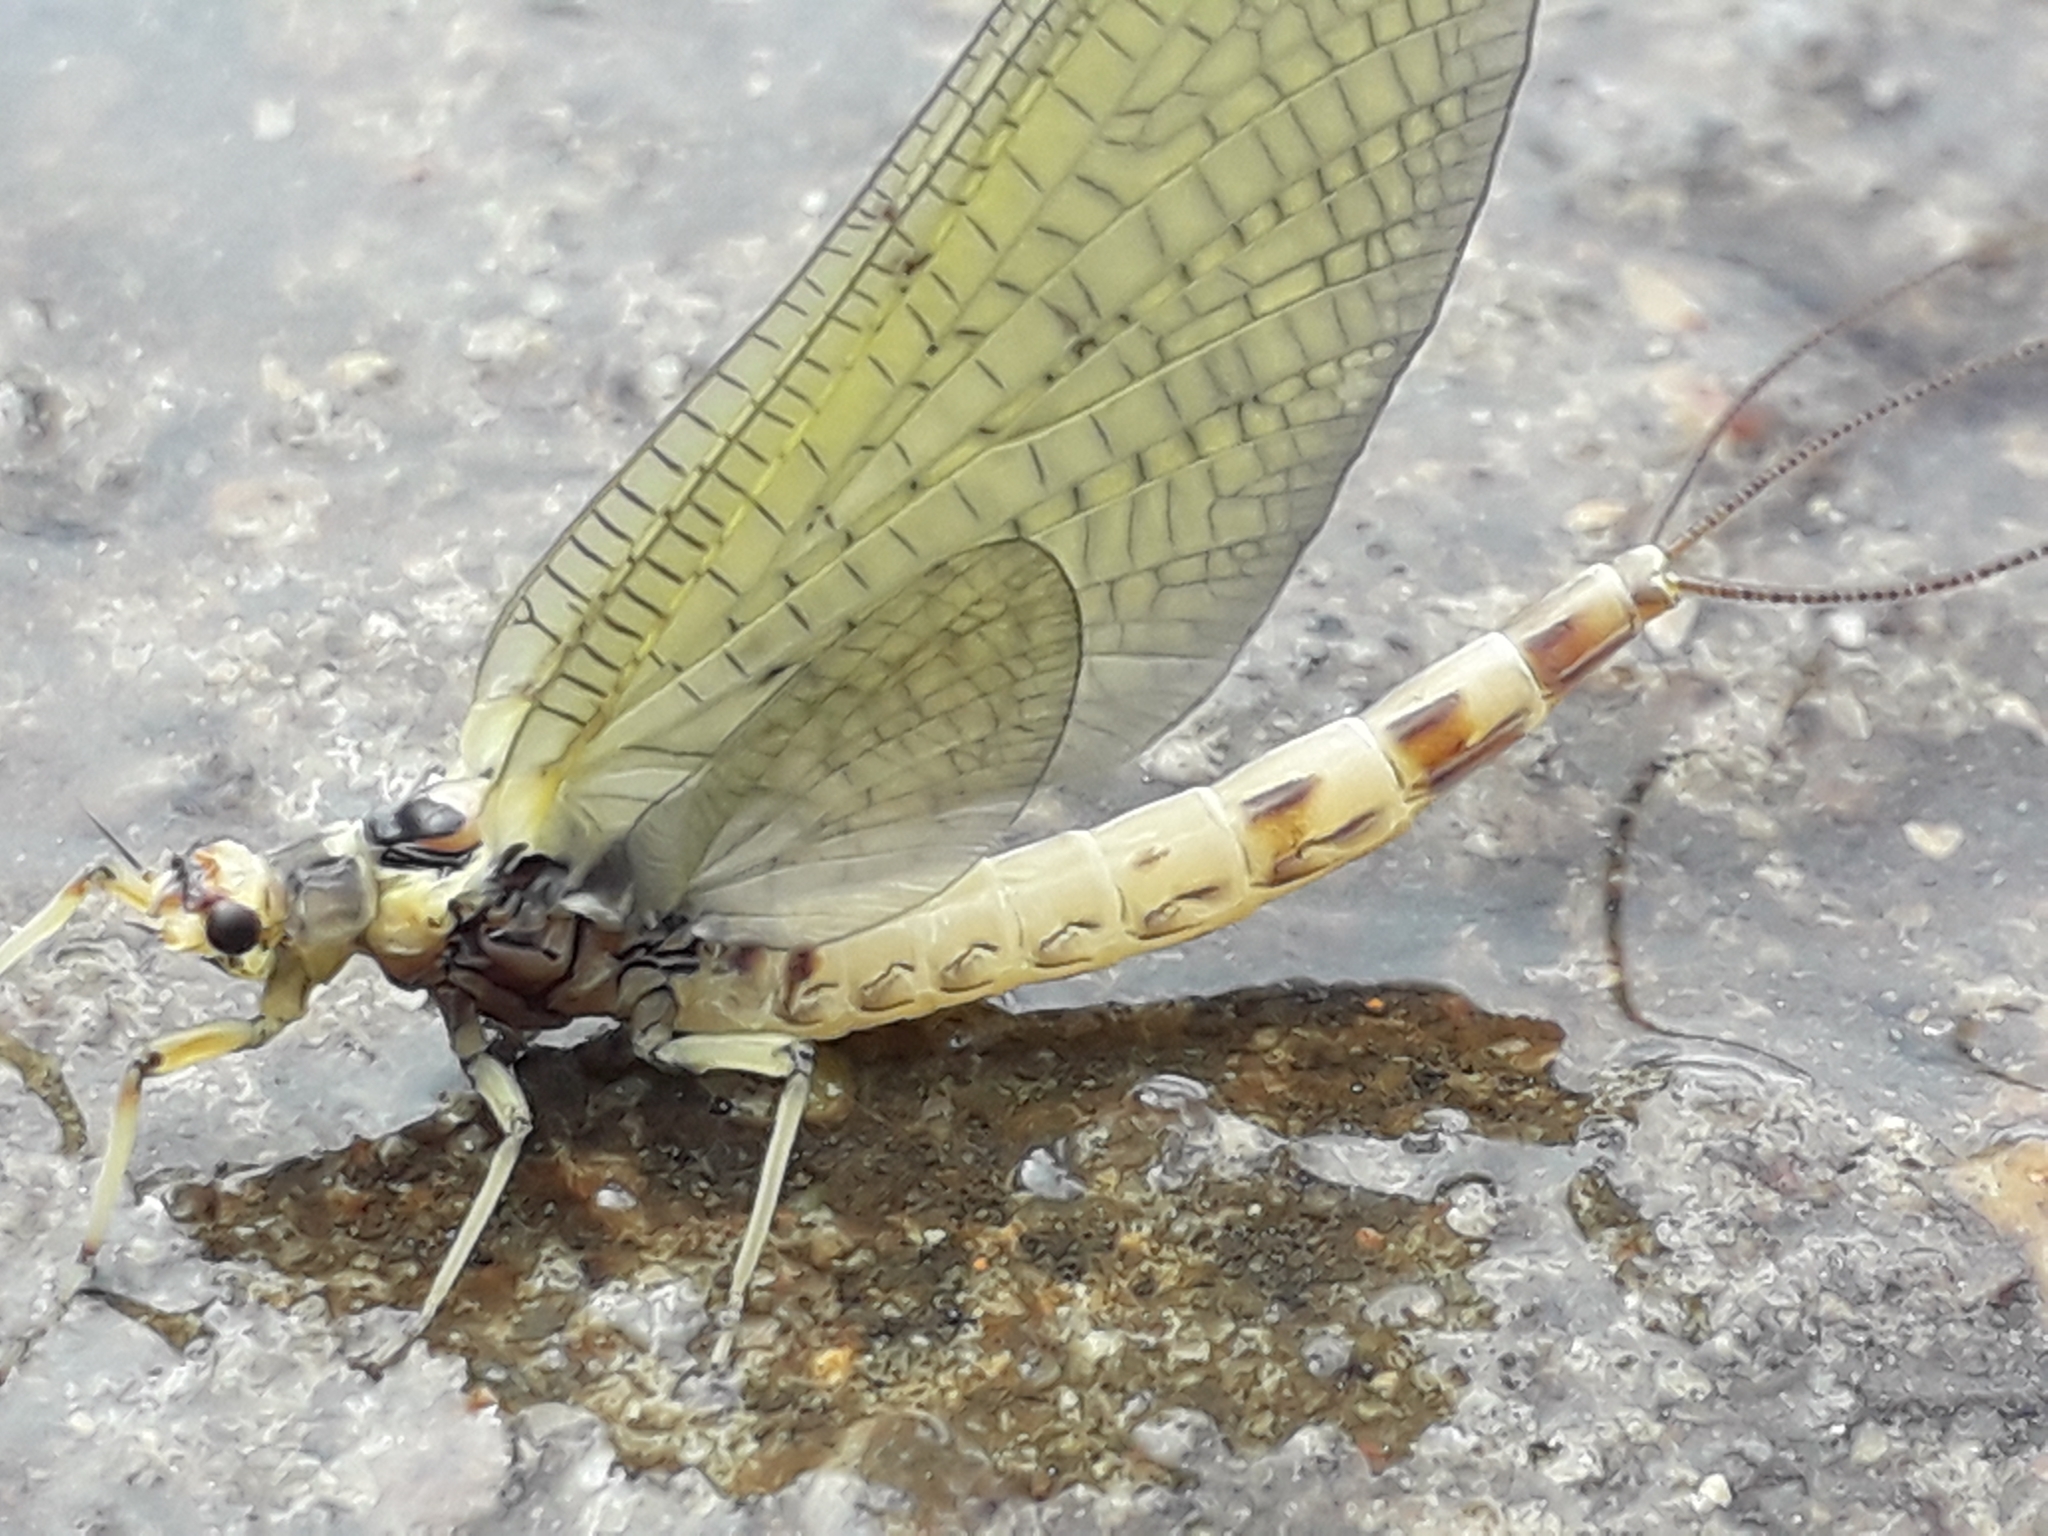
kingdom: Animalia
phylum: Arthropoda
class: Insecta
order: Ephemeroptera
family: Ephemeridae
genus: Ephemera
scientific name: Ephemera danica
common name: Green dun
